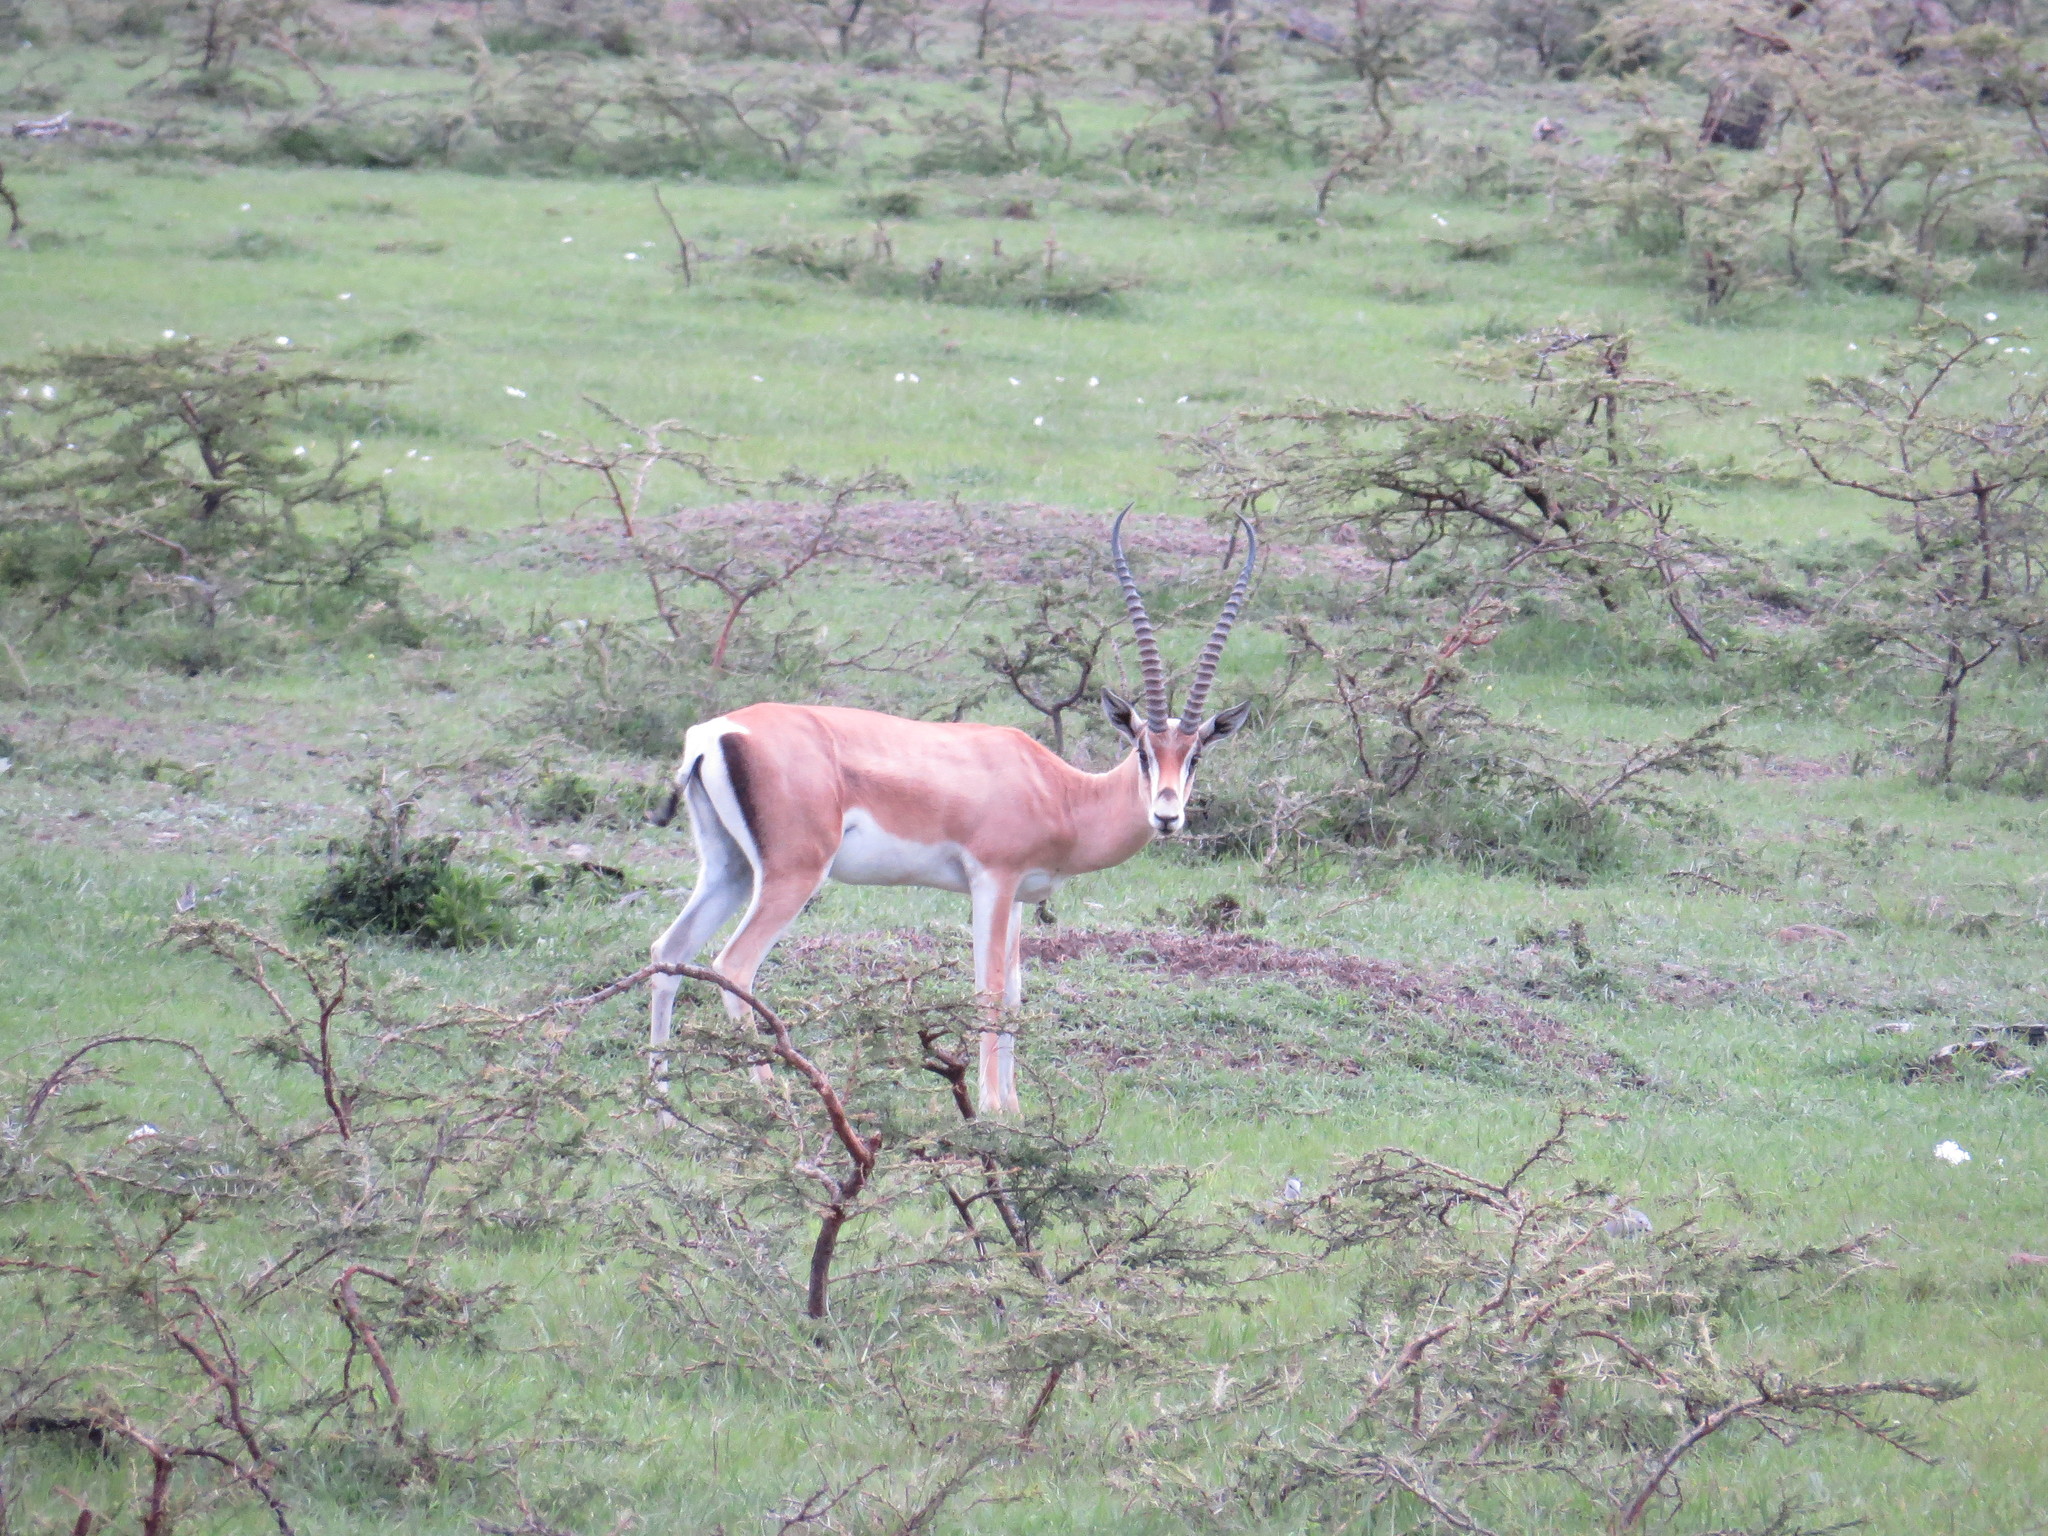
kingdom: Animalia
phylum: Chordata
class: Mammalia
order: Artiodactyla
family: Bovidae
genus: Nanger
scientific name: Nanger granti
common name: Grant's gazelle
